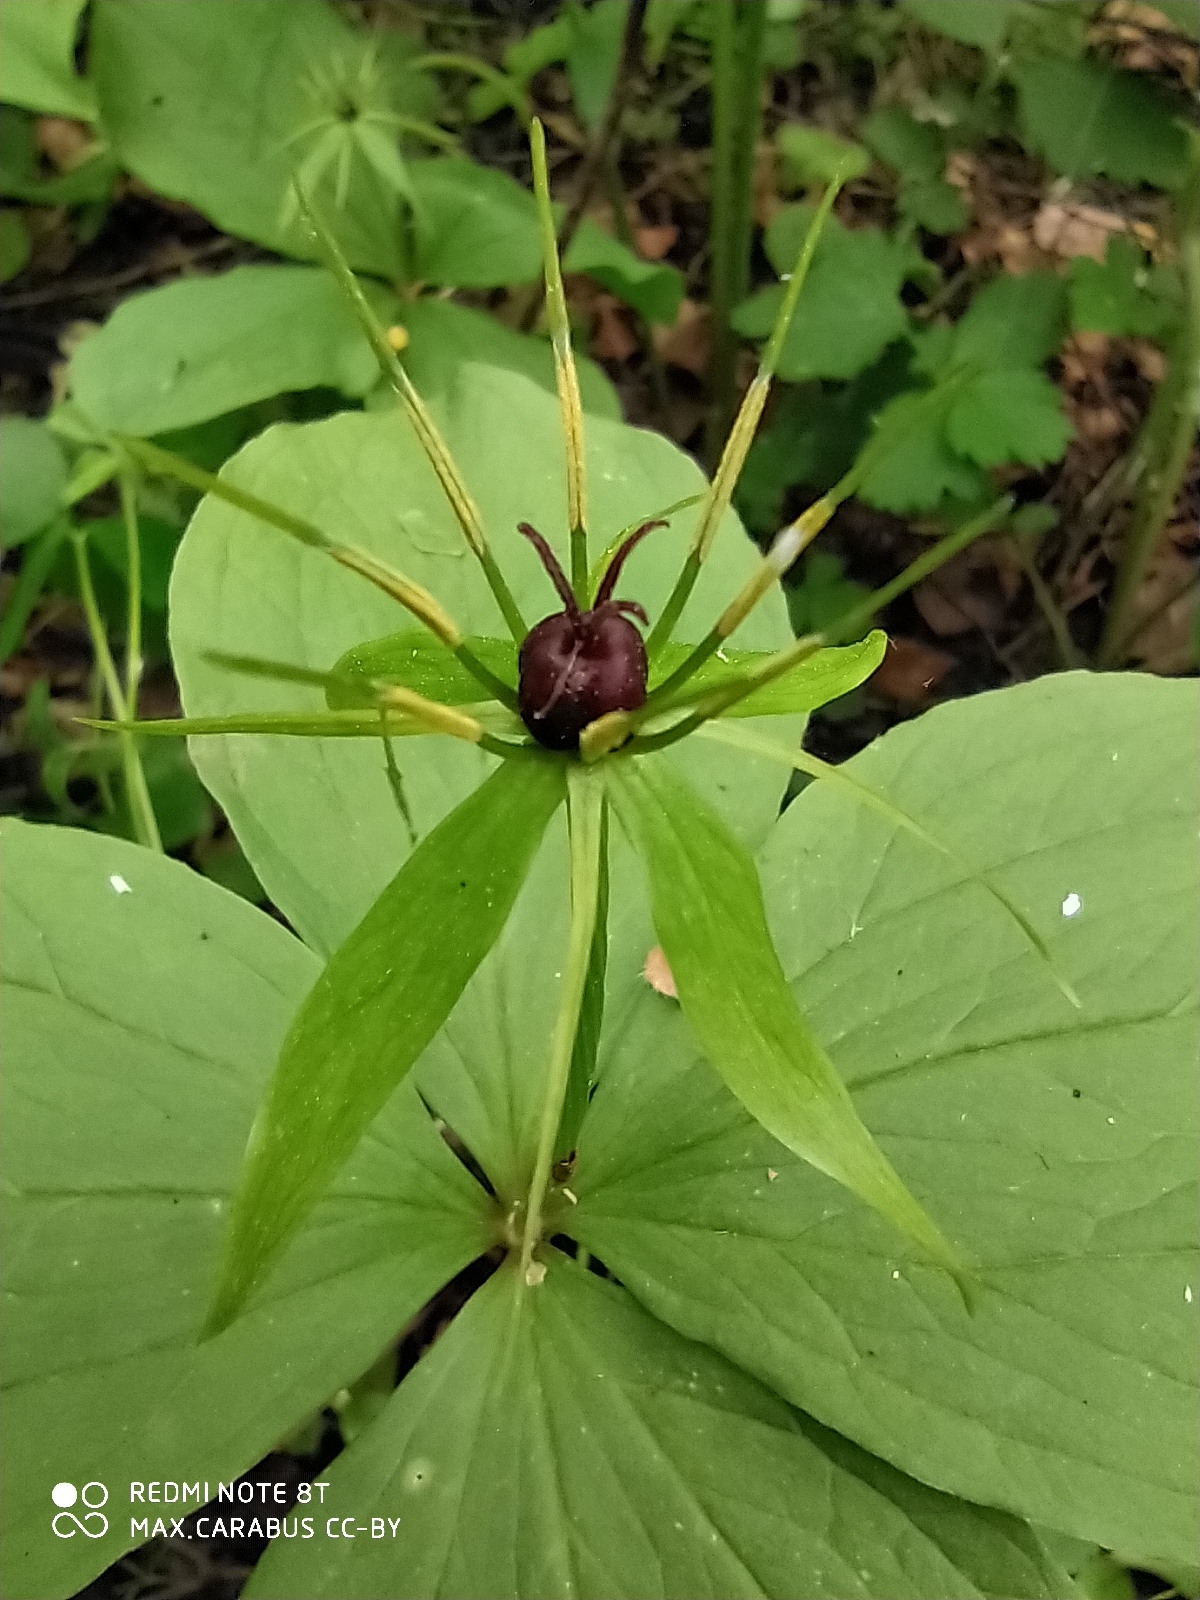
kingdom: Plantae
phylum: Tracheophyta
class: Liliopsida
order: Liliales
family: Melanthiaceae
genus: Paris
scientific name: Paris quadrifolia
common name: Herb-paris
